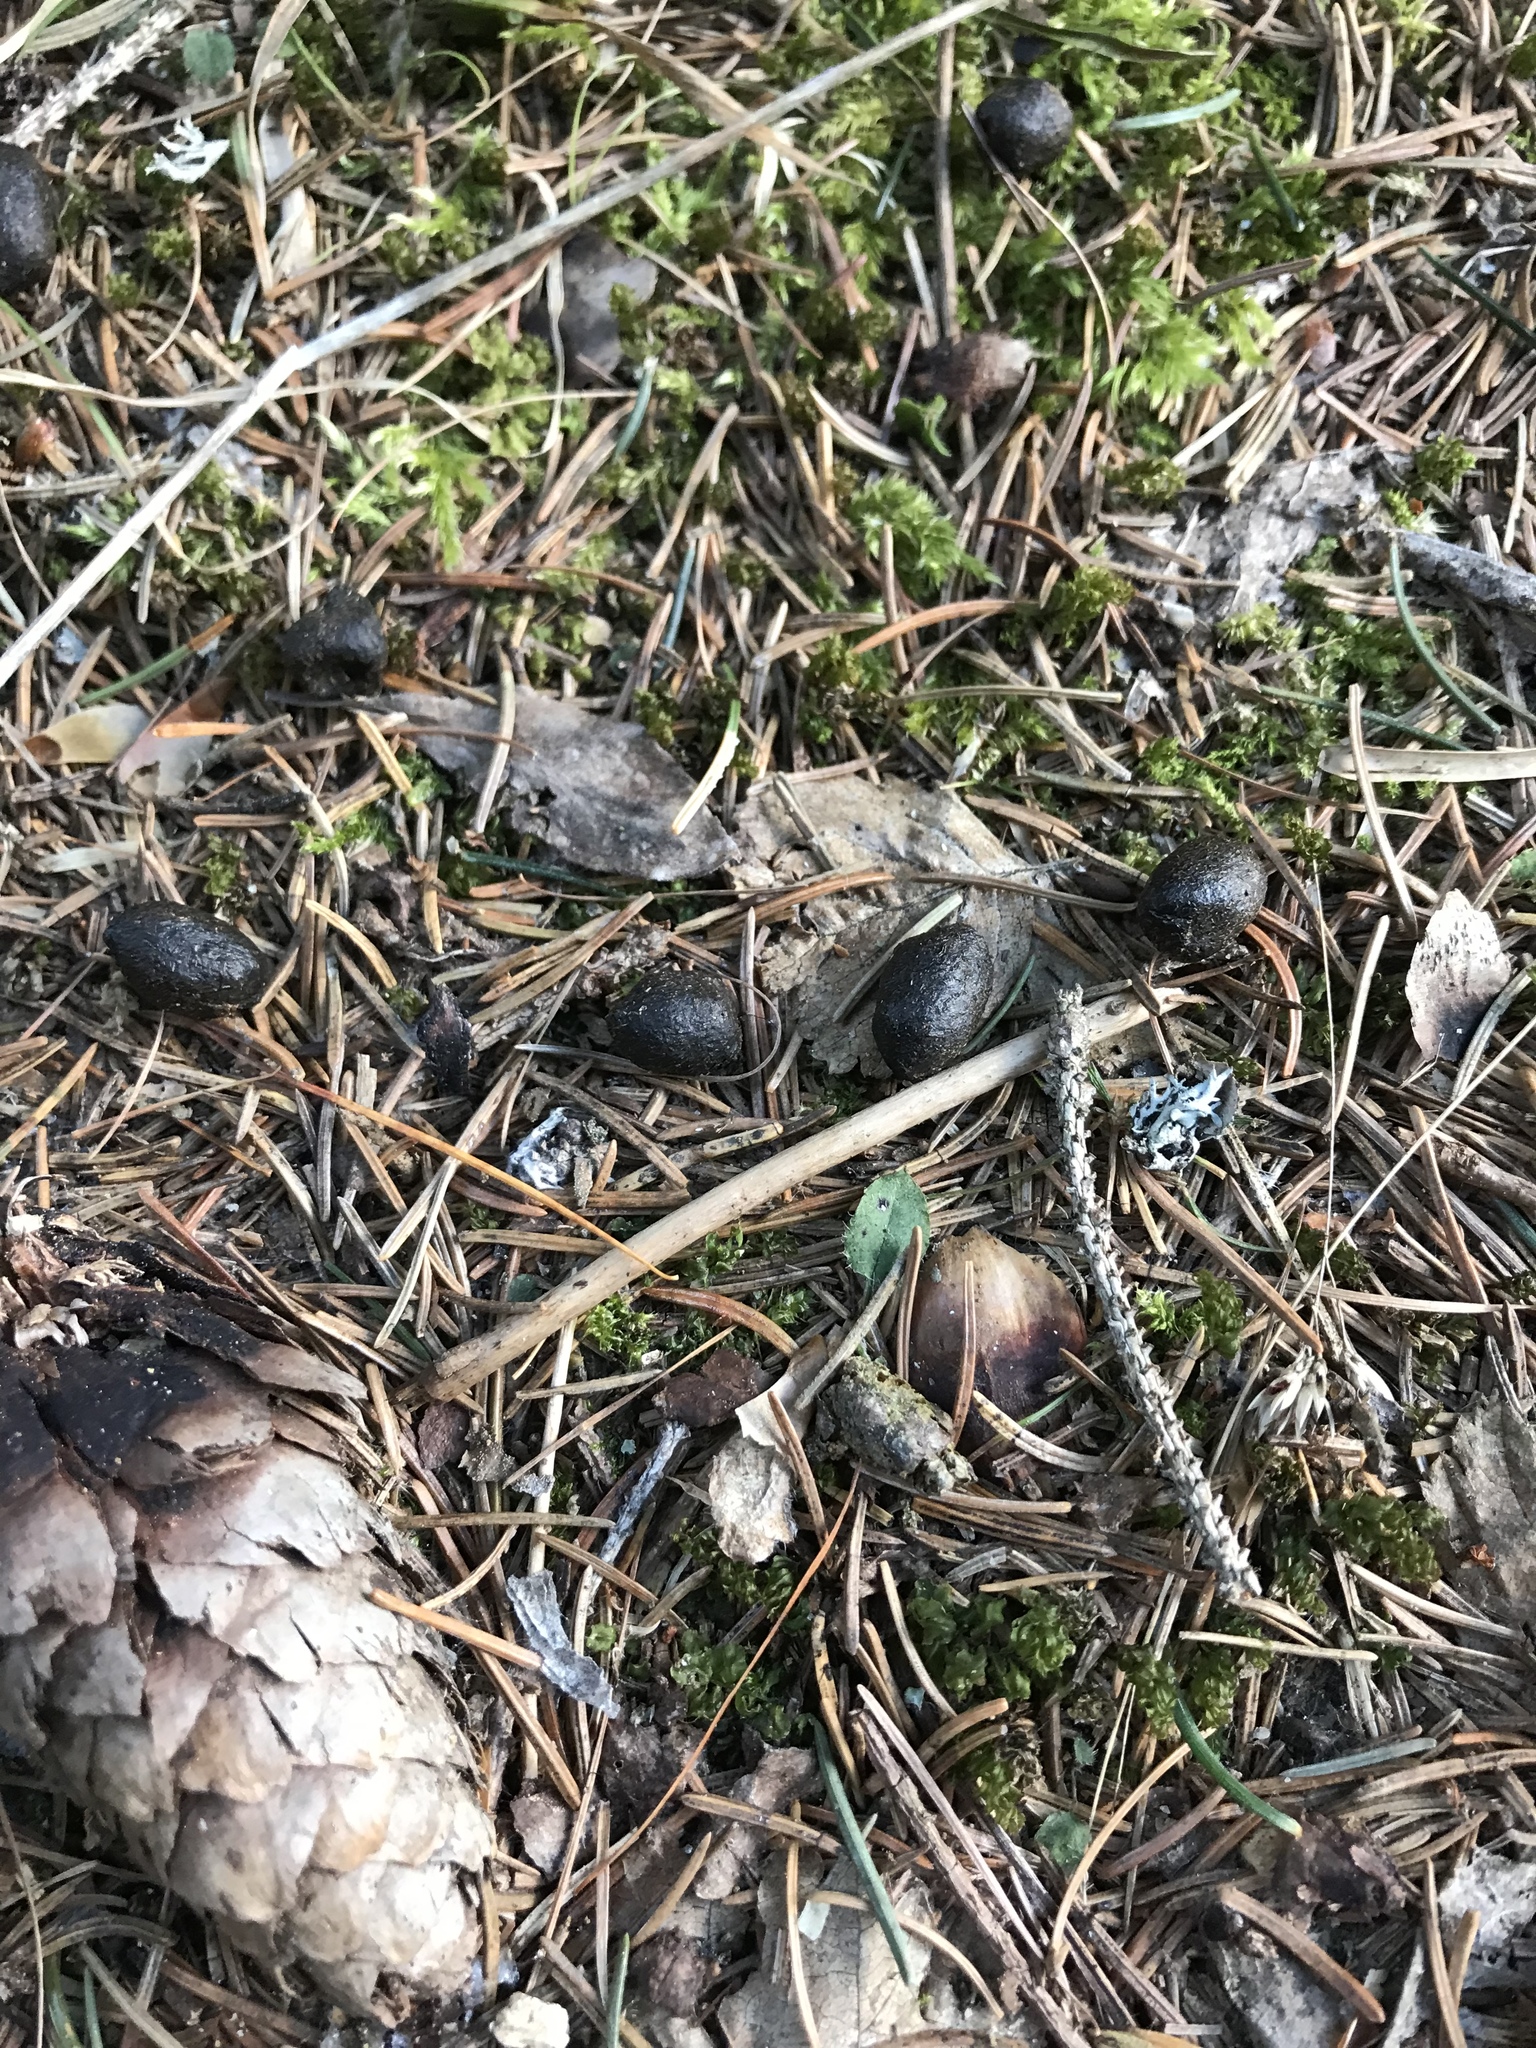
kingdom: Animalia
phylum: Chordata
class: Mammalia
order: Artiodactyla
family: Cervidae
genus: Capreolus
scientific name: Capreolus capreolus
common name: Western roe deer
